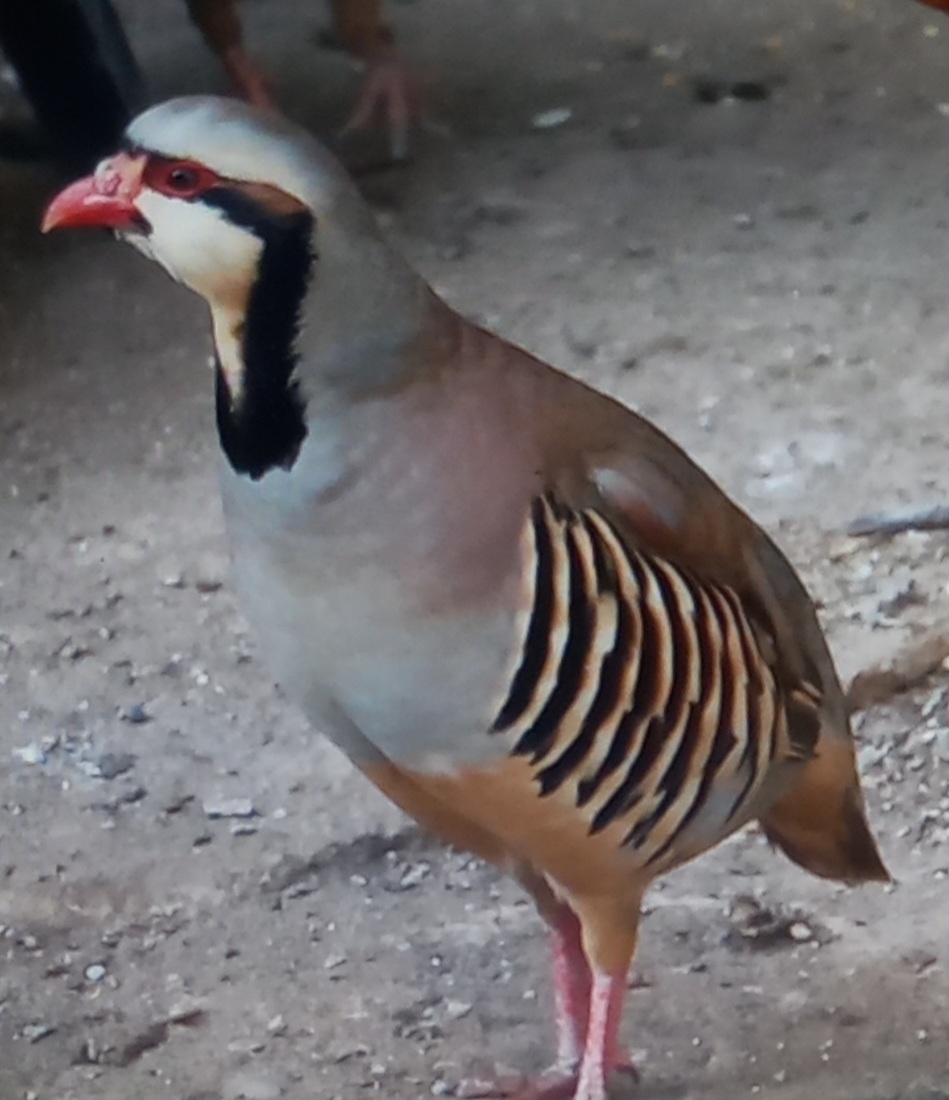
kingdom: Animalia
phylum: Chordata
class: Aves
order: Galliformes
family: Phasianidae
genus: Alectoris
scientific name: Alectoris chukar
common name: Chukar
